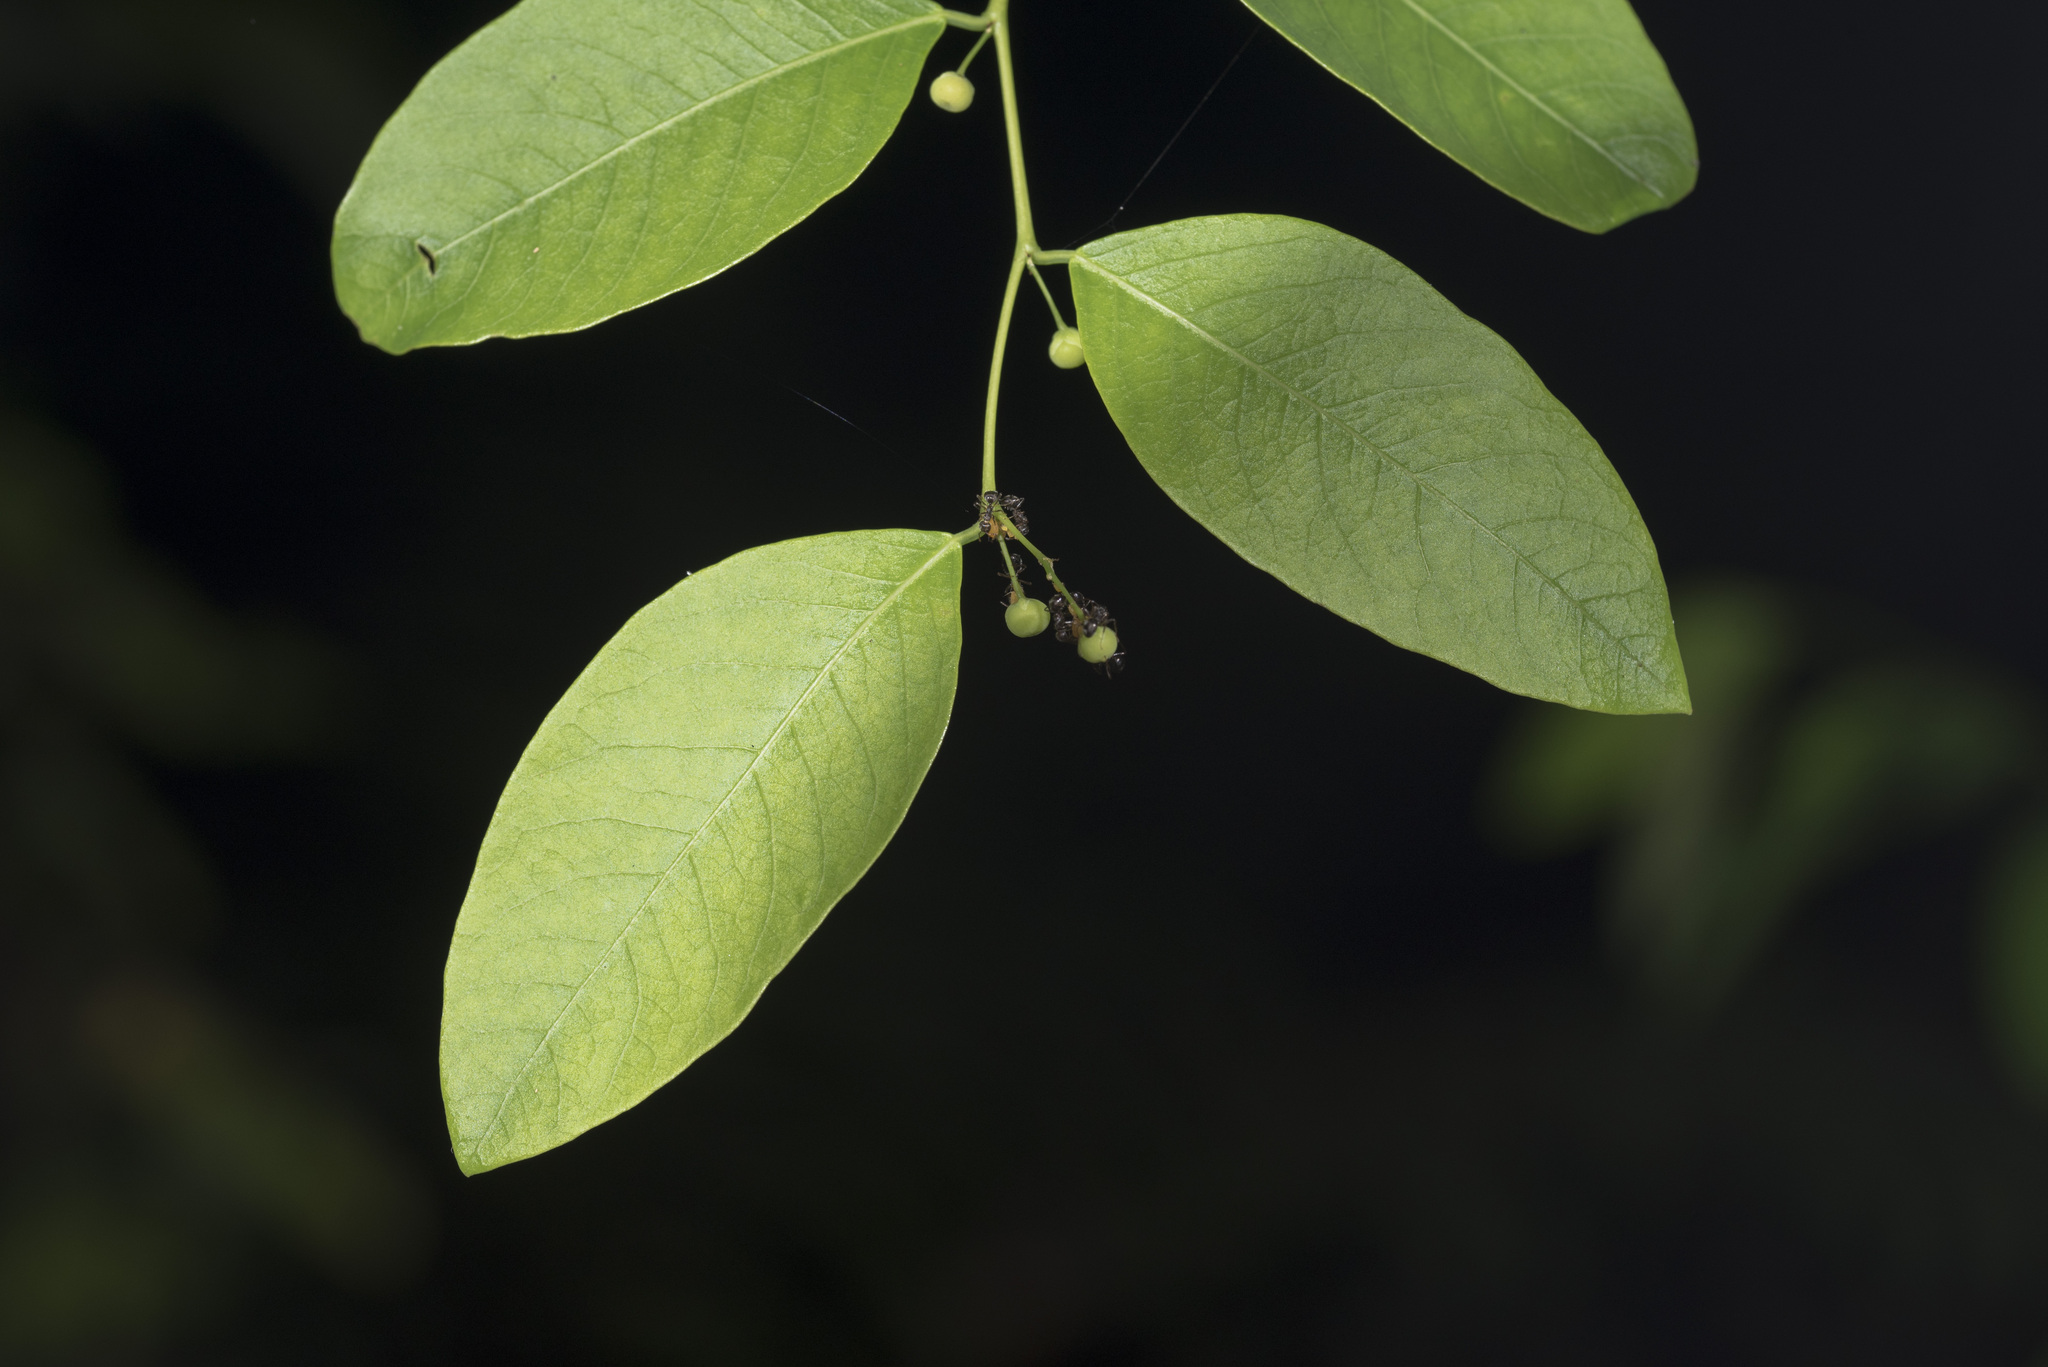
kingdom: Plantae
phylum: Tracheophyta
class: Magnoliopsida
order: Malpighiales
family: Phyllanthaceae
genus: Phyllanthus
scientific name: Phyllanthus reticulatus
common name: Potato bush
